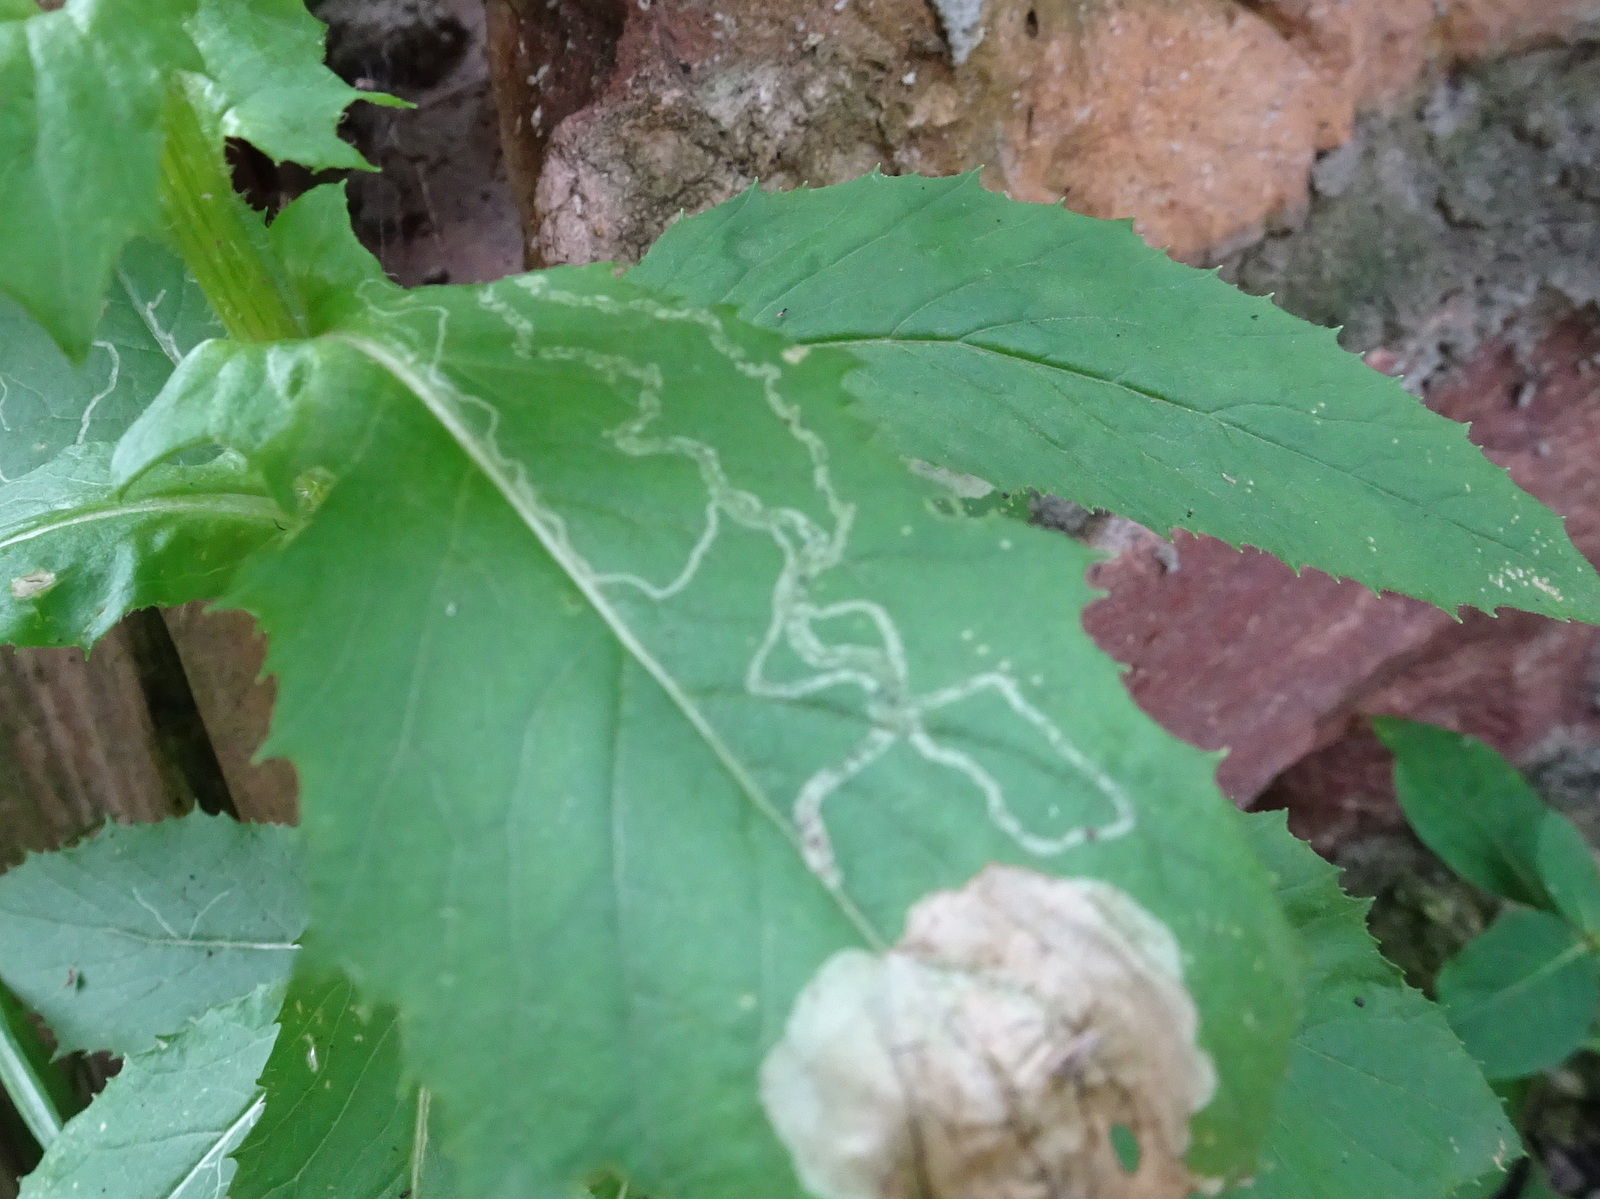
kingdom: Animalia
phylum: Arthropoda
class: Insecta
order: Diptera
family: Agromyzidae
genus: Nemorimyza
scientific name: Nemorimyza maculosa
